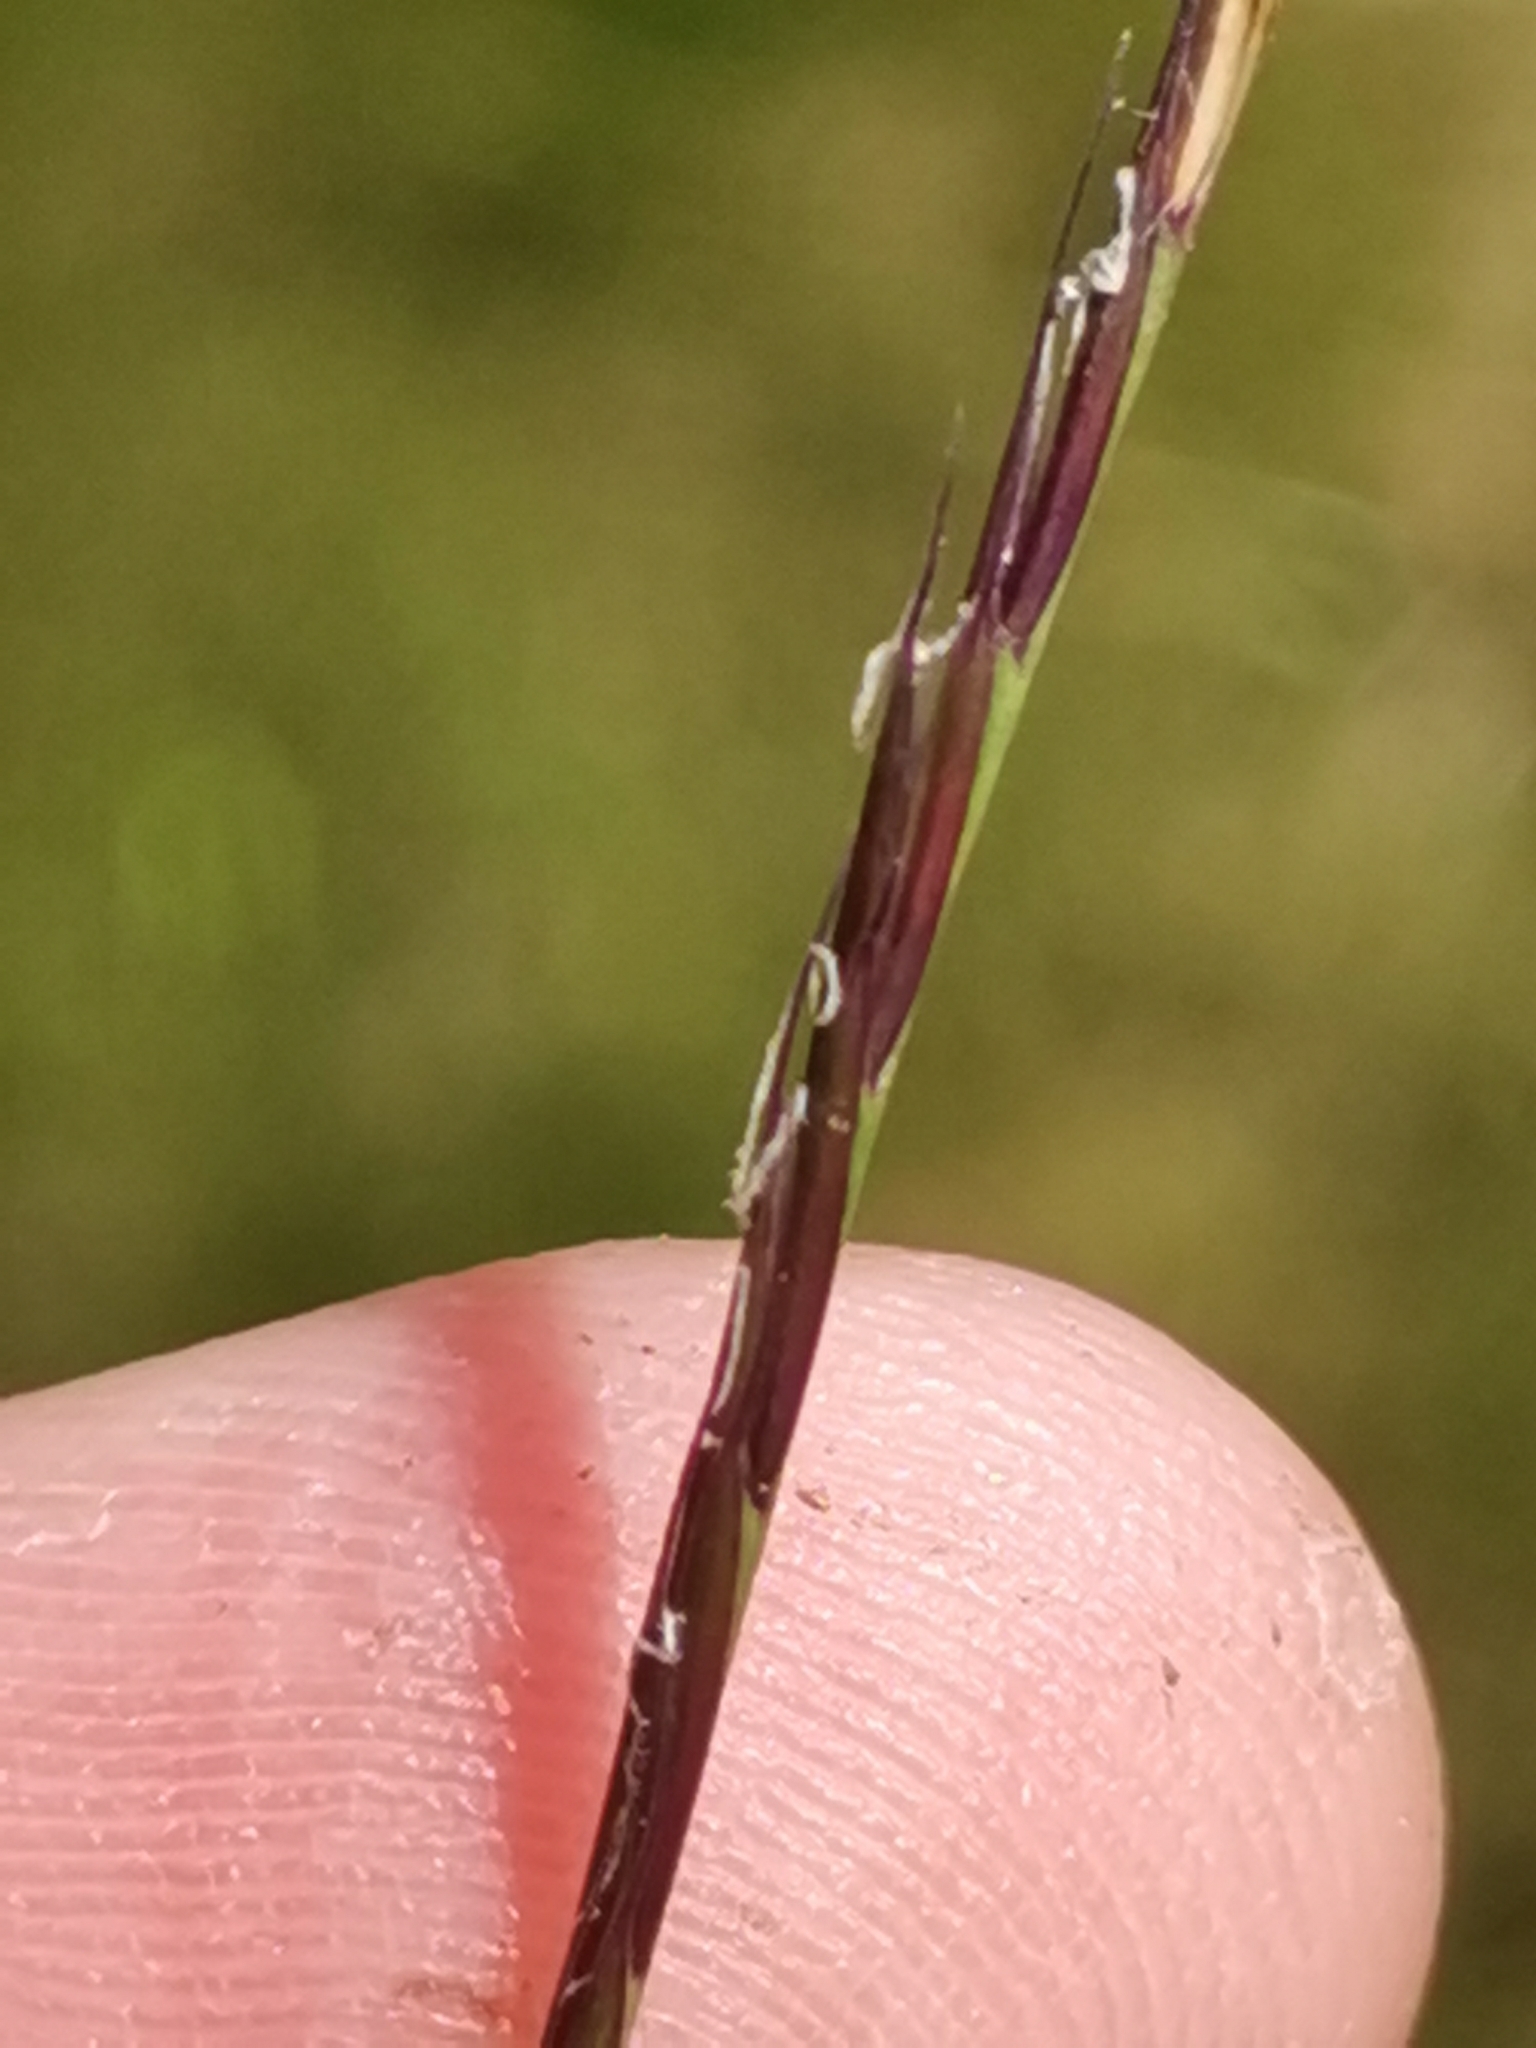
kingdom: Plantae
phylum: Tracheophyta
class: Liliopsida
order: Poales
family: Poaceae
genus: Nardus
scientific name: Nardus stricta
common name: Mat-grass
